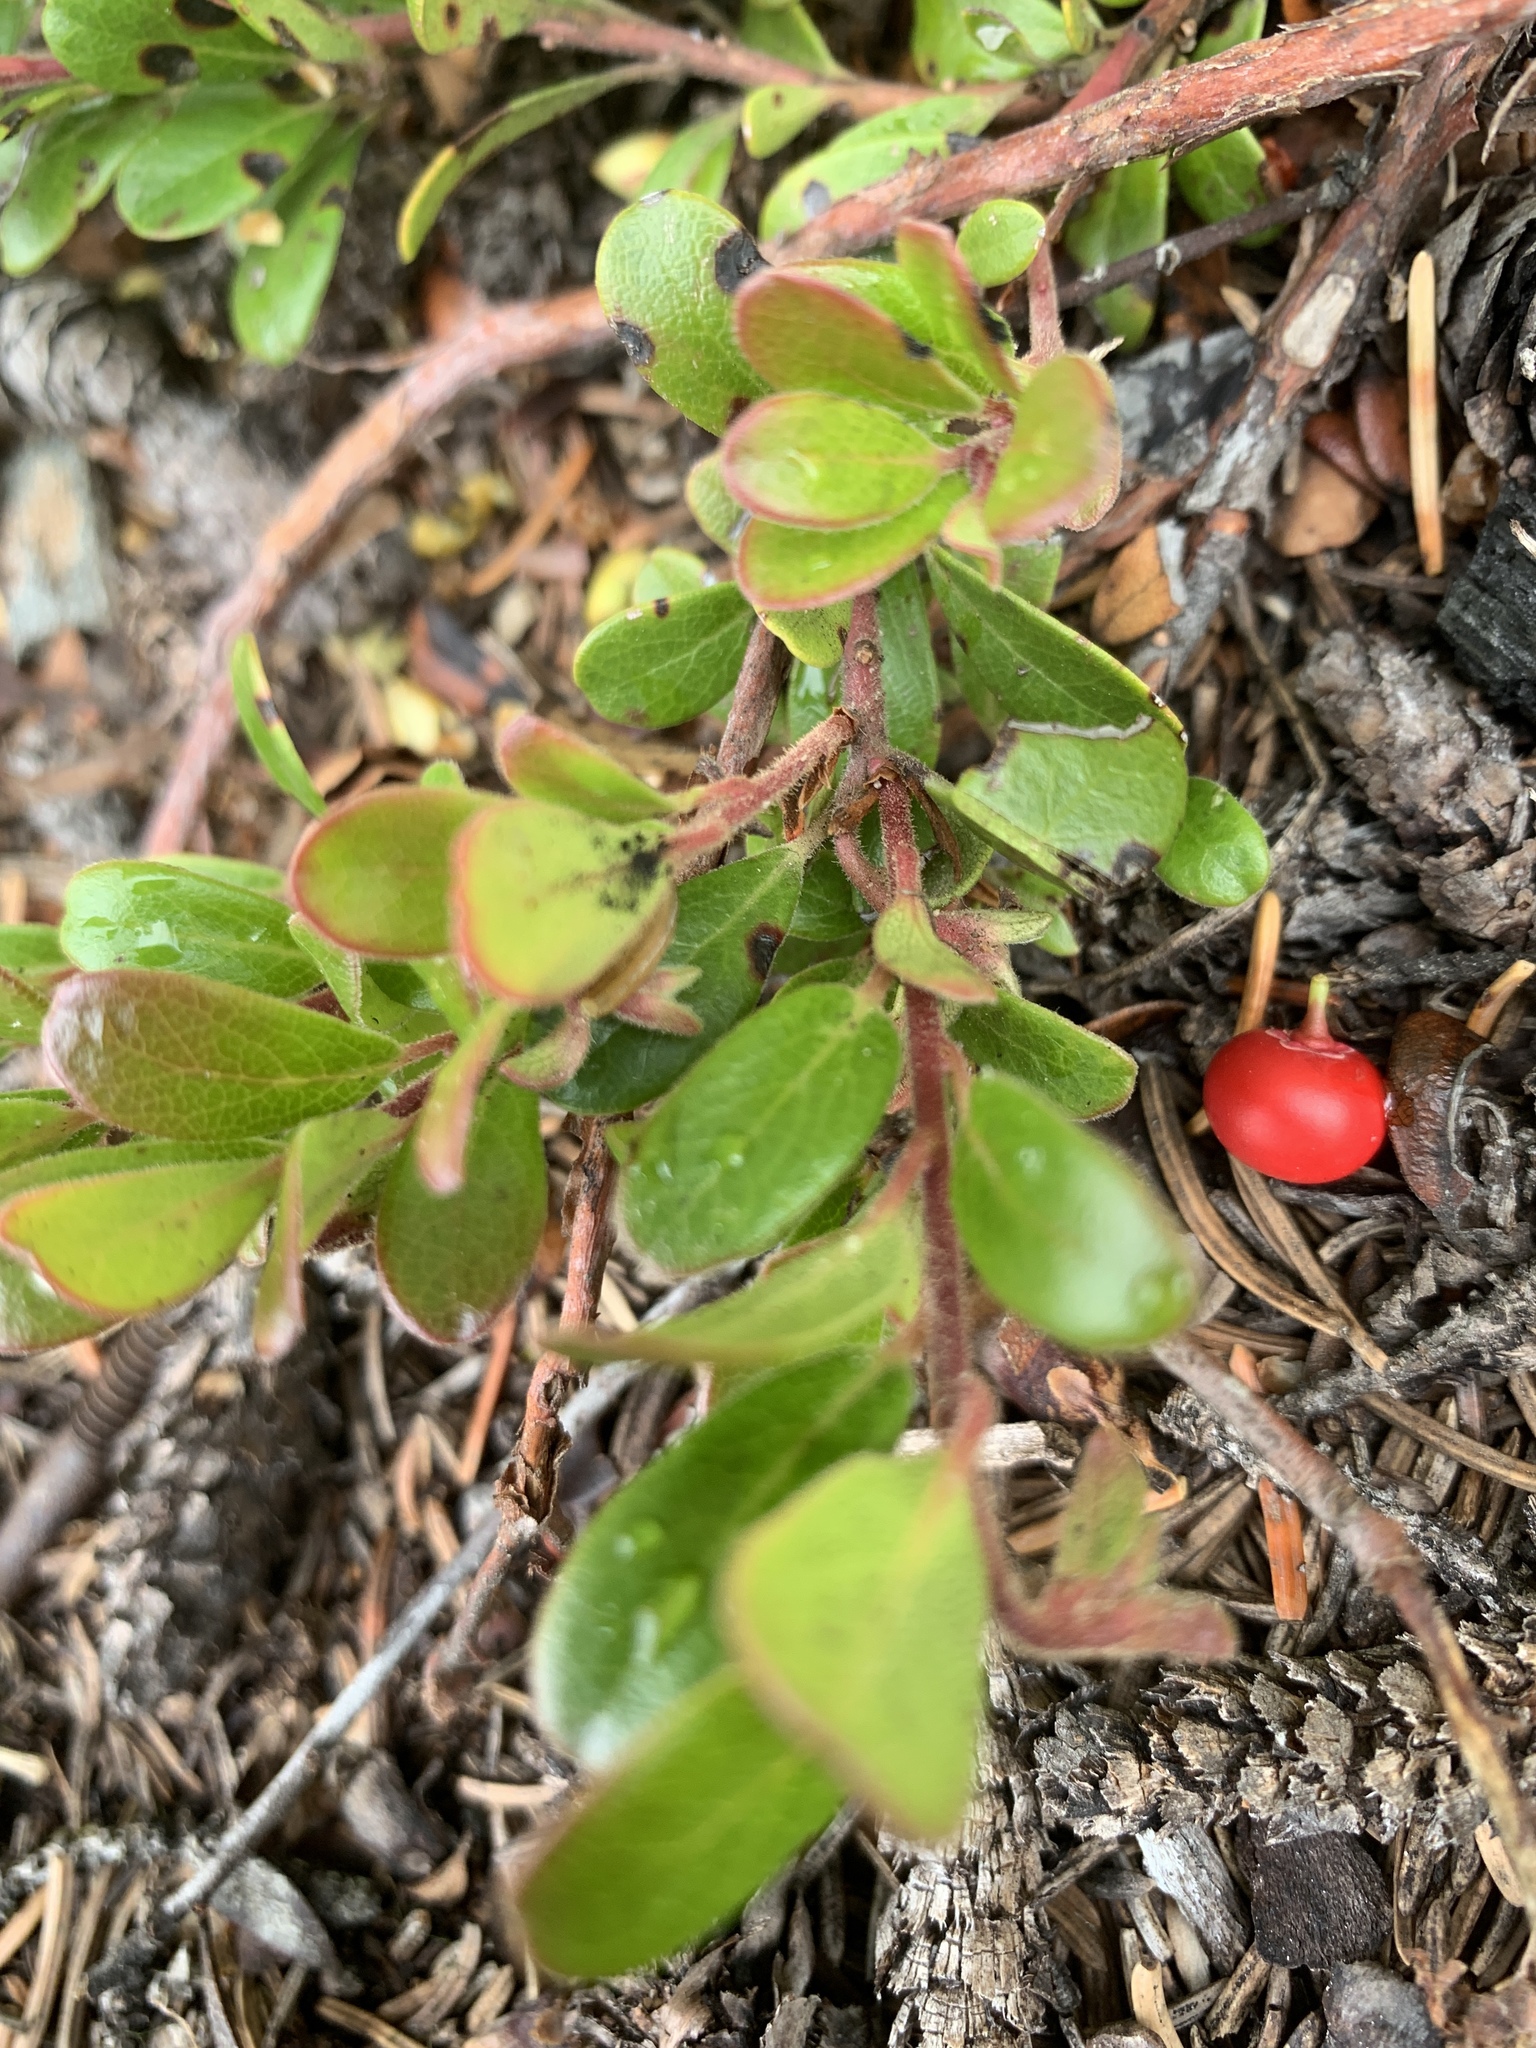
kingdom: Plantae
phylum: Tracheophyta
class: Magnoliopsida
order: Ericales
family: Ericaceae
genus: Arctostaphylos
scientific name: Arctostaphylos uva-ursi
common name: Bearberry
